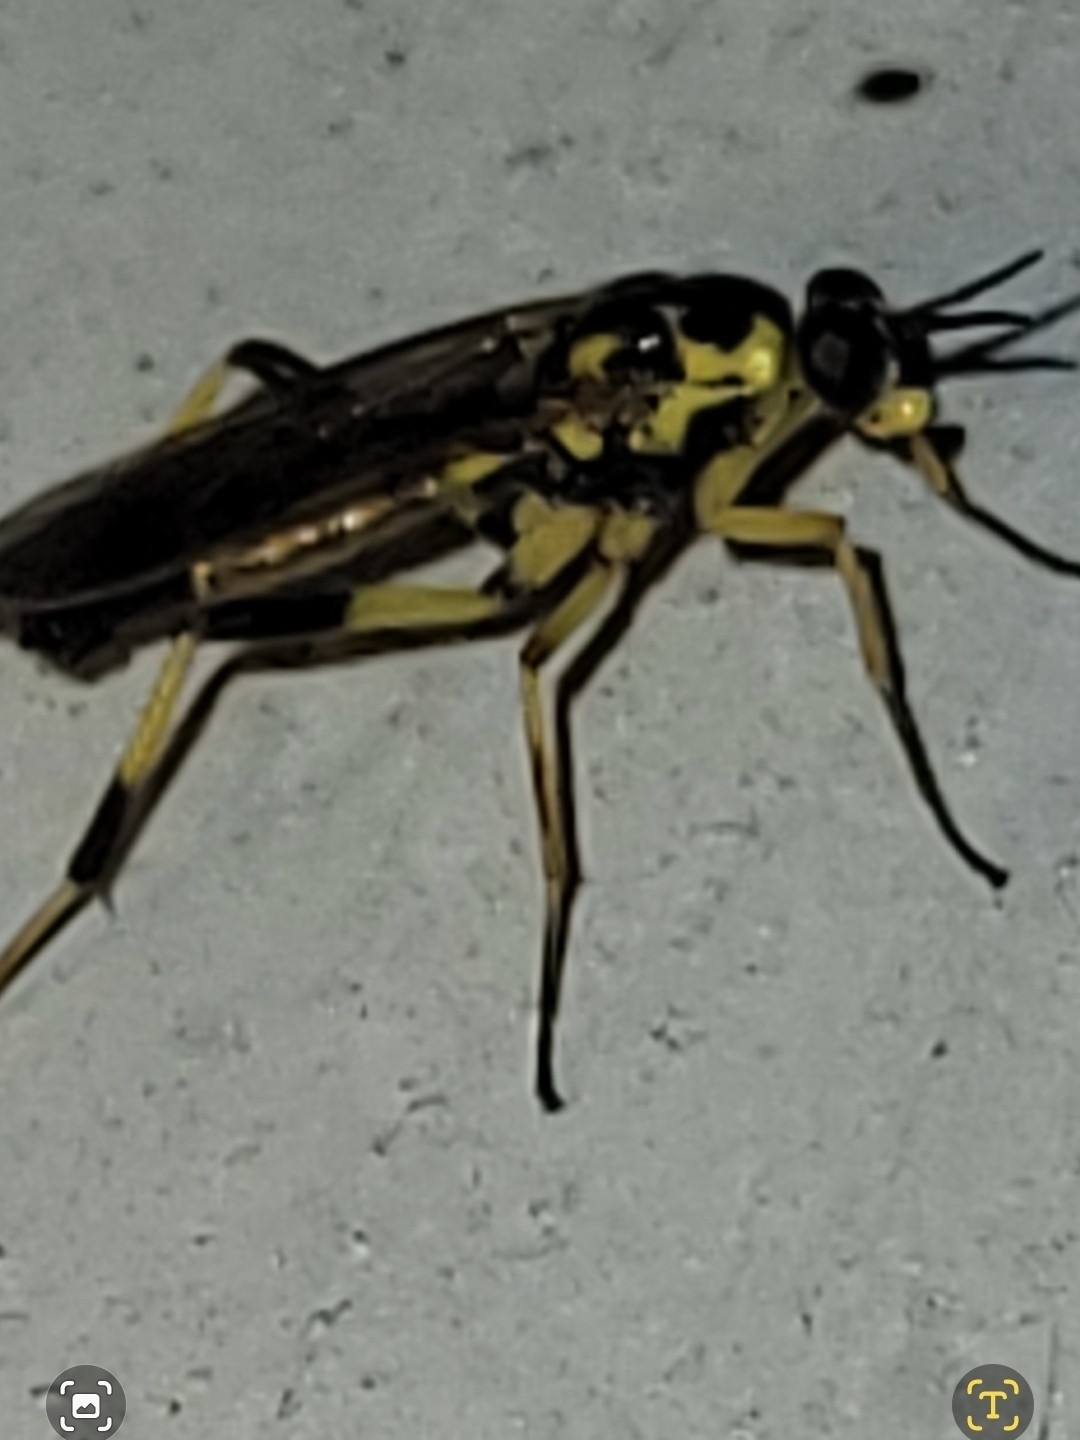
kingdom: Animalia
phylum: Arthropoda
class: Insecta
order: Diptera
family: Xylomyidae
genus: Xylomya
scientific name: Xylomya terminalis
